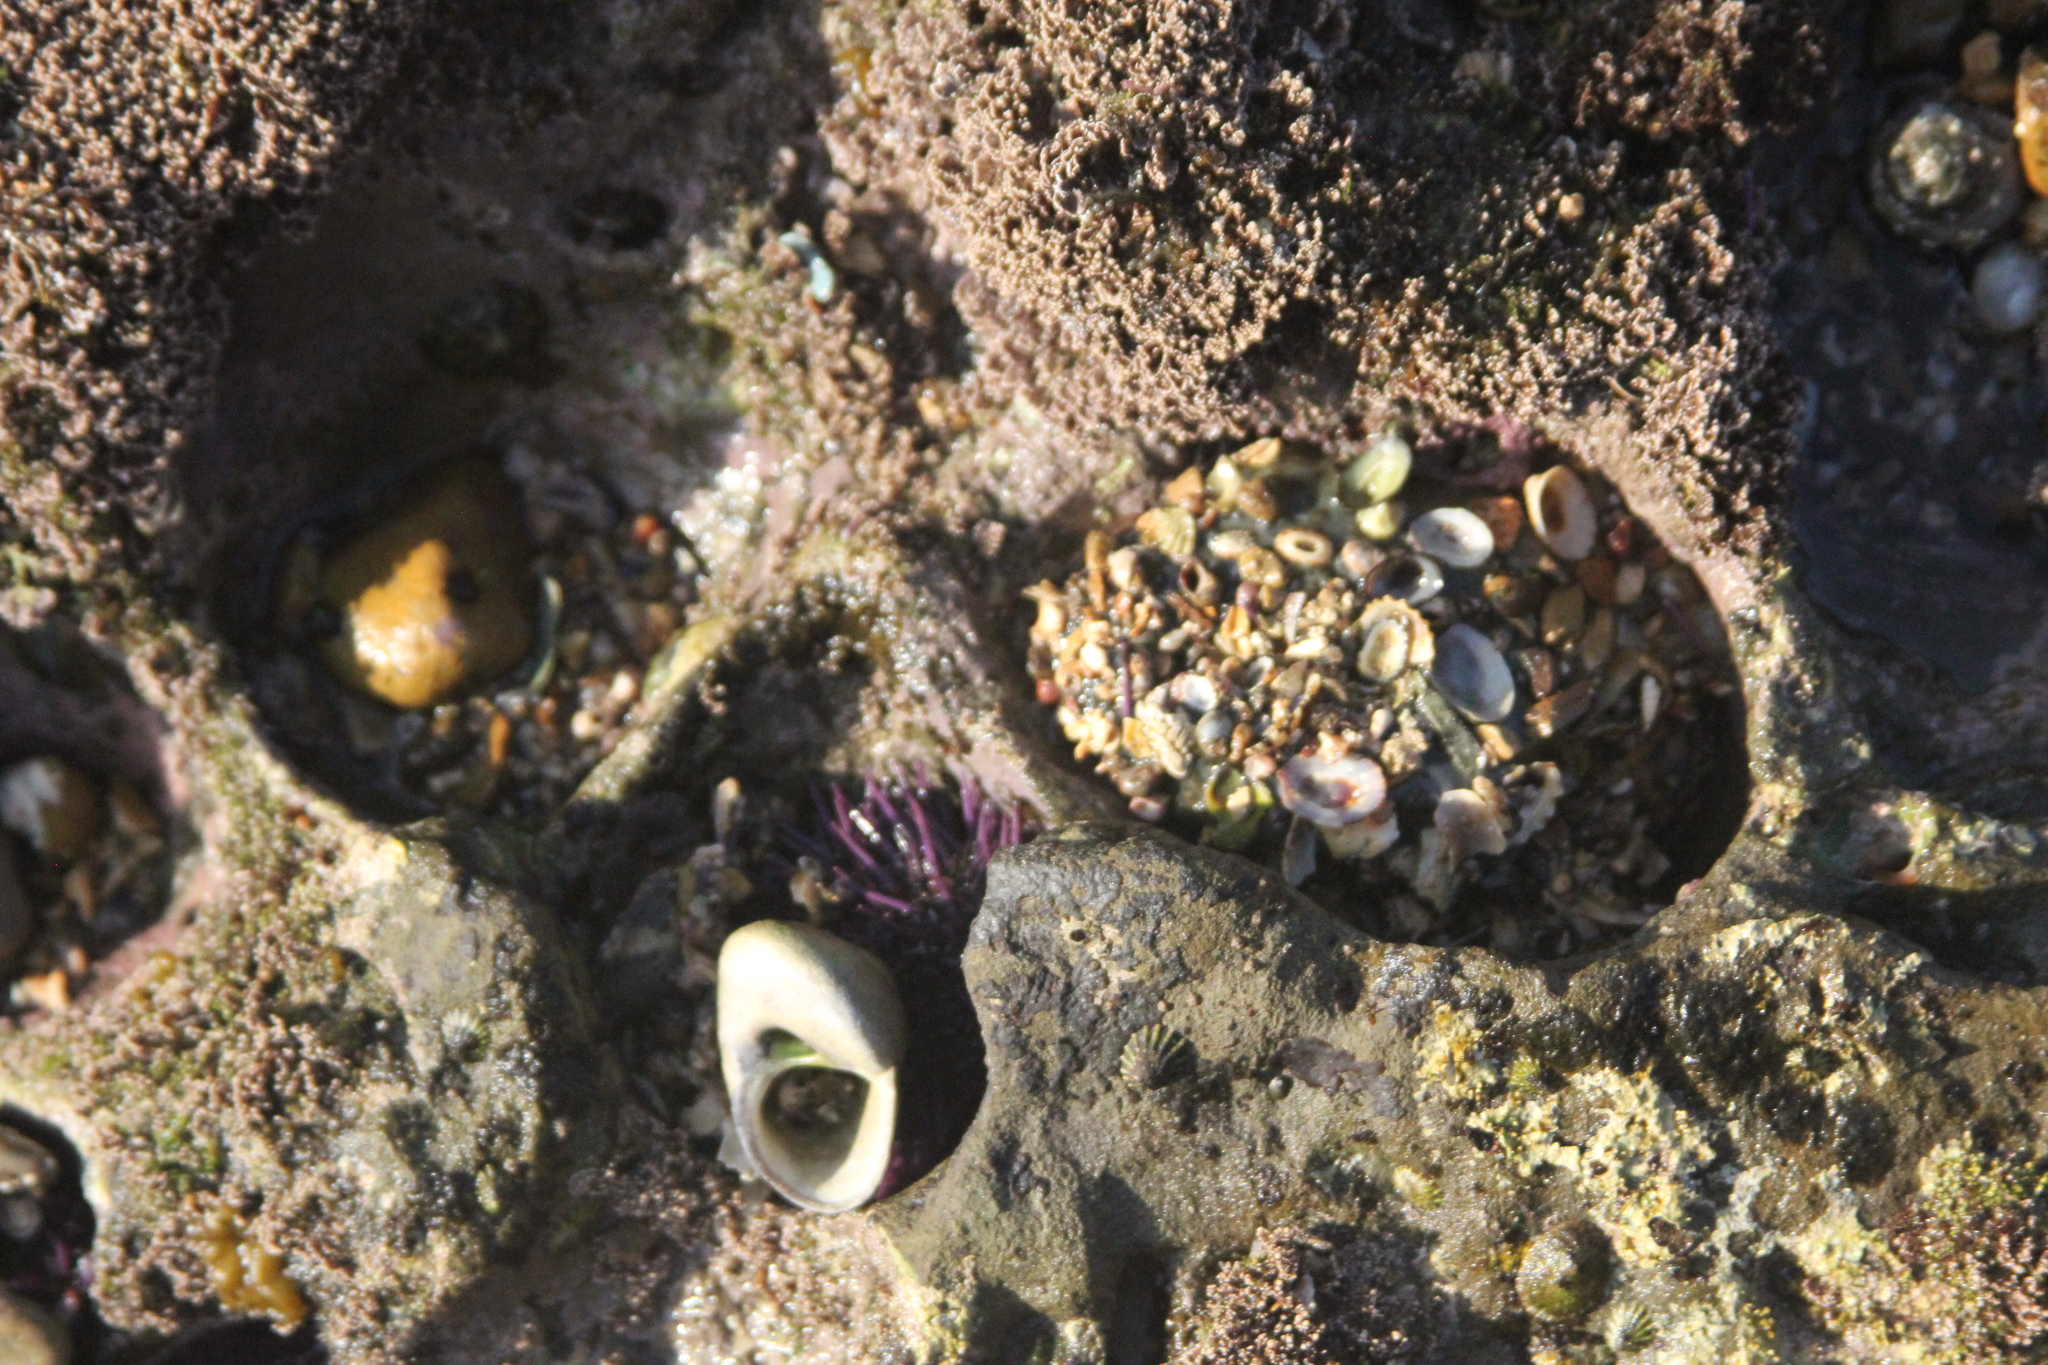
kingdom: Animalia
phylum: Cnidaria
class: Anthozoa
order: Actiniaria
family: Actiniidae
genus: Anthopleura
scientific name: Anthopleura elegantissima
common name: Clonal anemone
